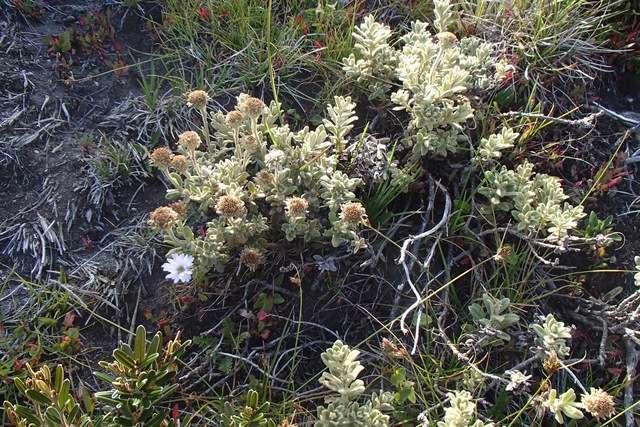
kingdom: Plantae
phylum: Tracheophyta
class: Magnoliopsida
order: Asterales
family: Asteraceae
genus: Olearia
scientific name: Olearia frostii
